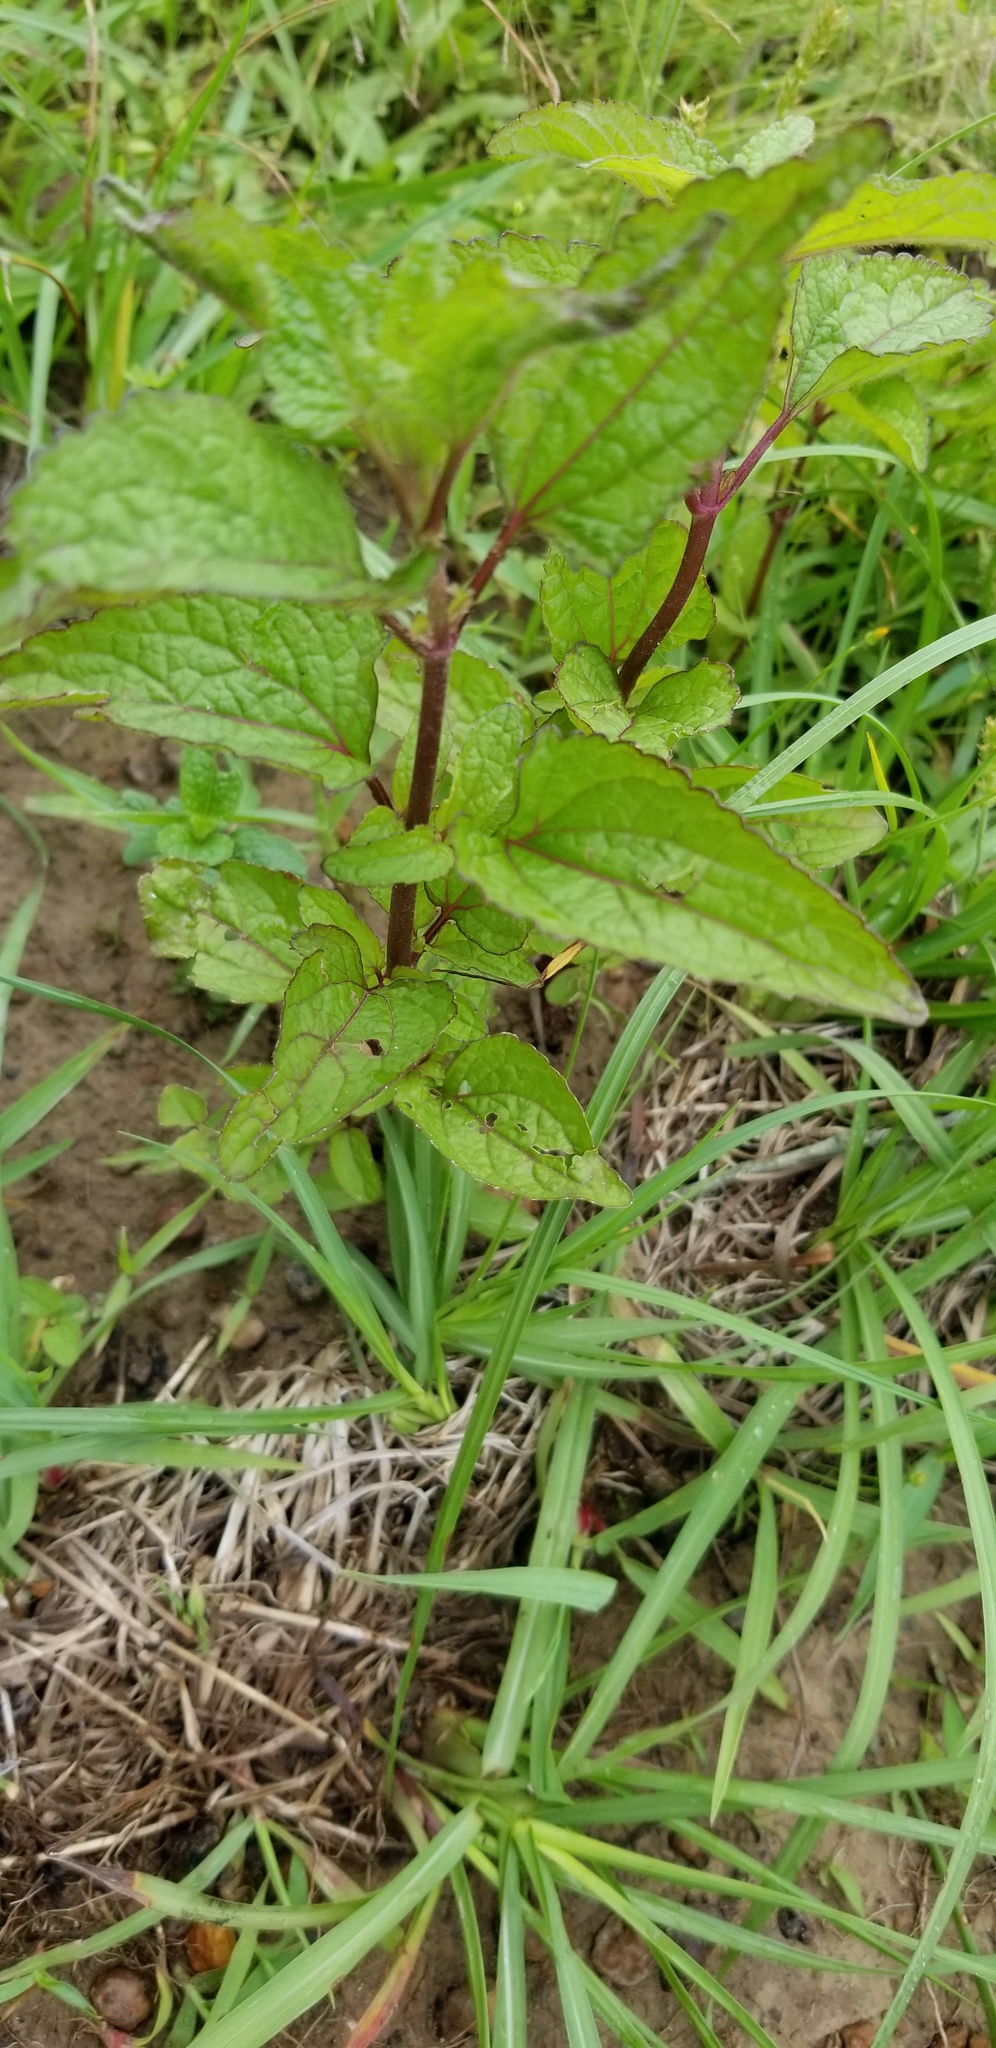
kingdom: Plantae
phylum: Tracheophyta
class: Magnoliopsida
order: Asterales
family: Asteraceae
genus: Conoclinium
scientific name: Conoclinium coelestinum
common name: Blue mistflower
